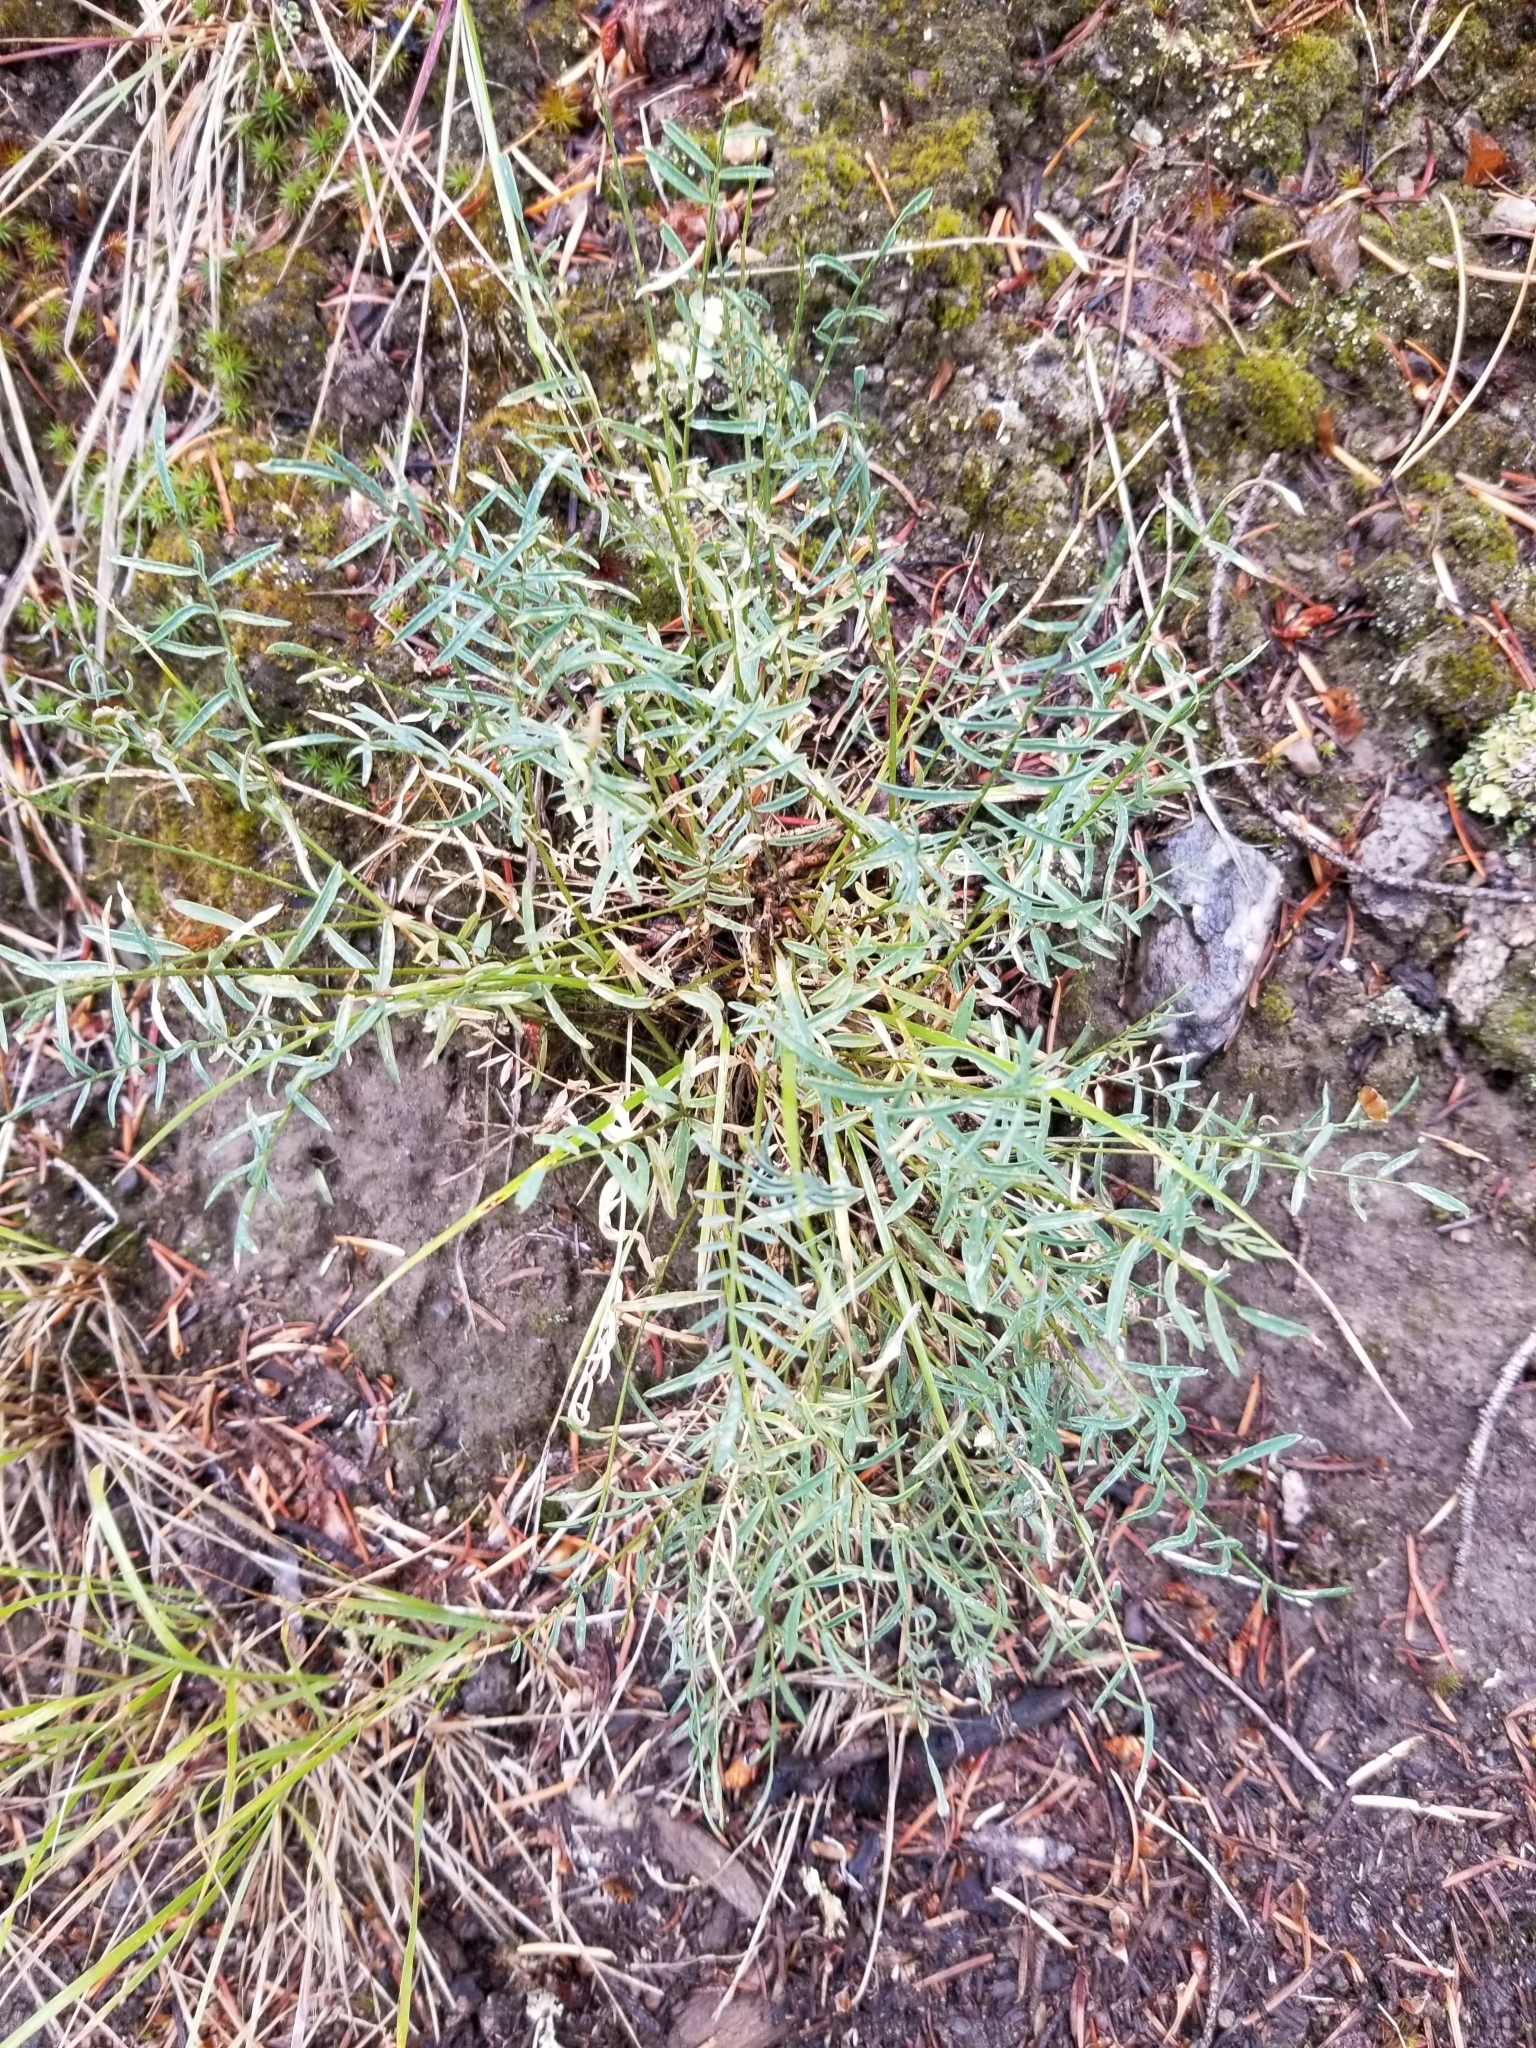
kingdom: Plantae
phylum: Tracheophyta
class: Magnoliopsida
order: Fabales
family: Fabaceae
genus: Astragalus
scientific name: Astragalus miser
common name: Timber milkvetch
